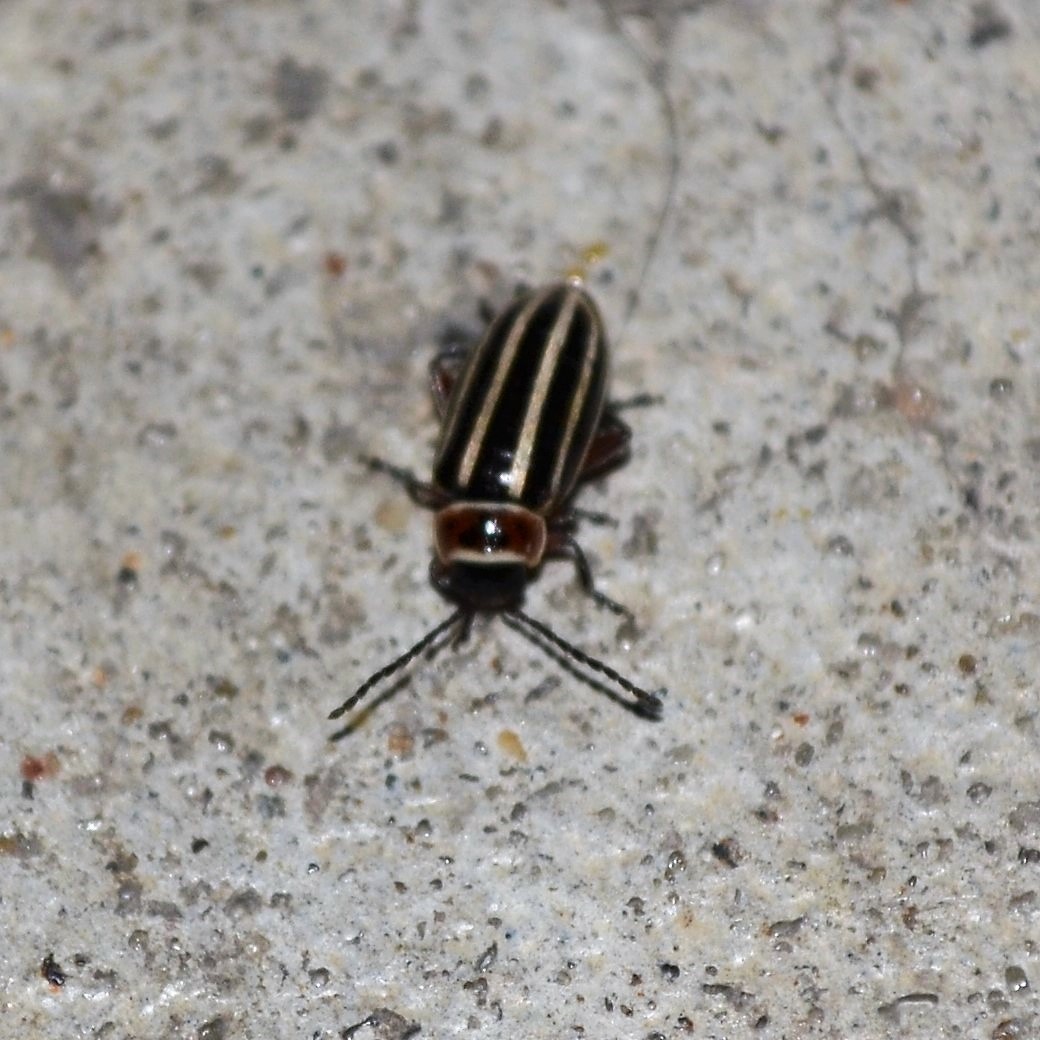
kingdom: Animalia
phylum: Arthropoda
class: Insecta
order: Coleoptera
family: Chrysomelidae
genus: Disonycha
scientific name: Disonycha procera
